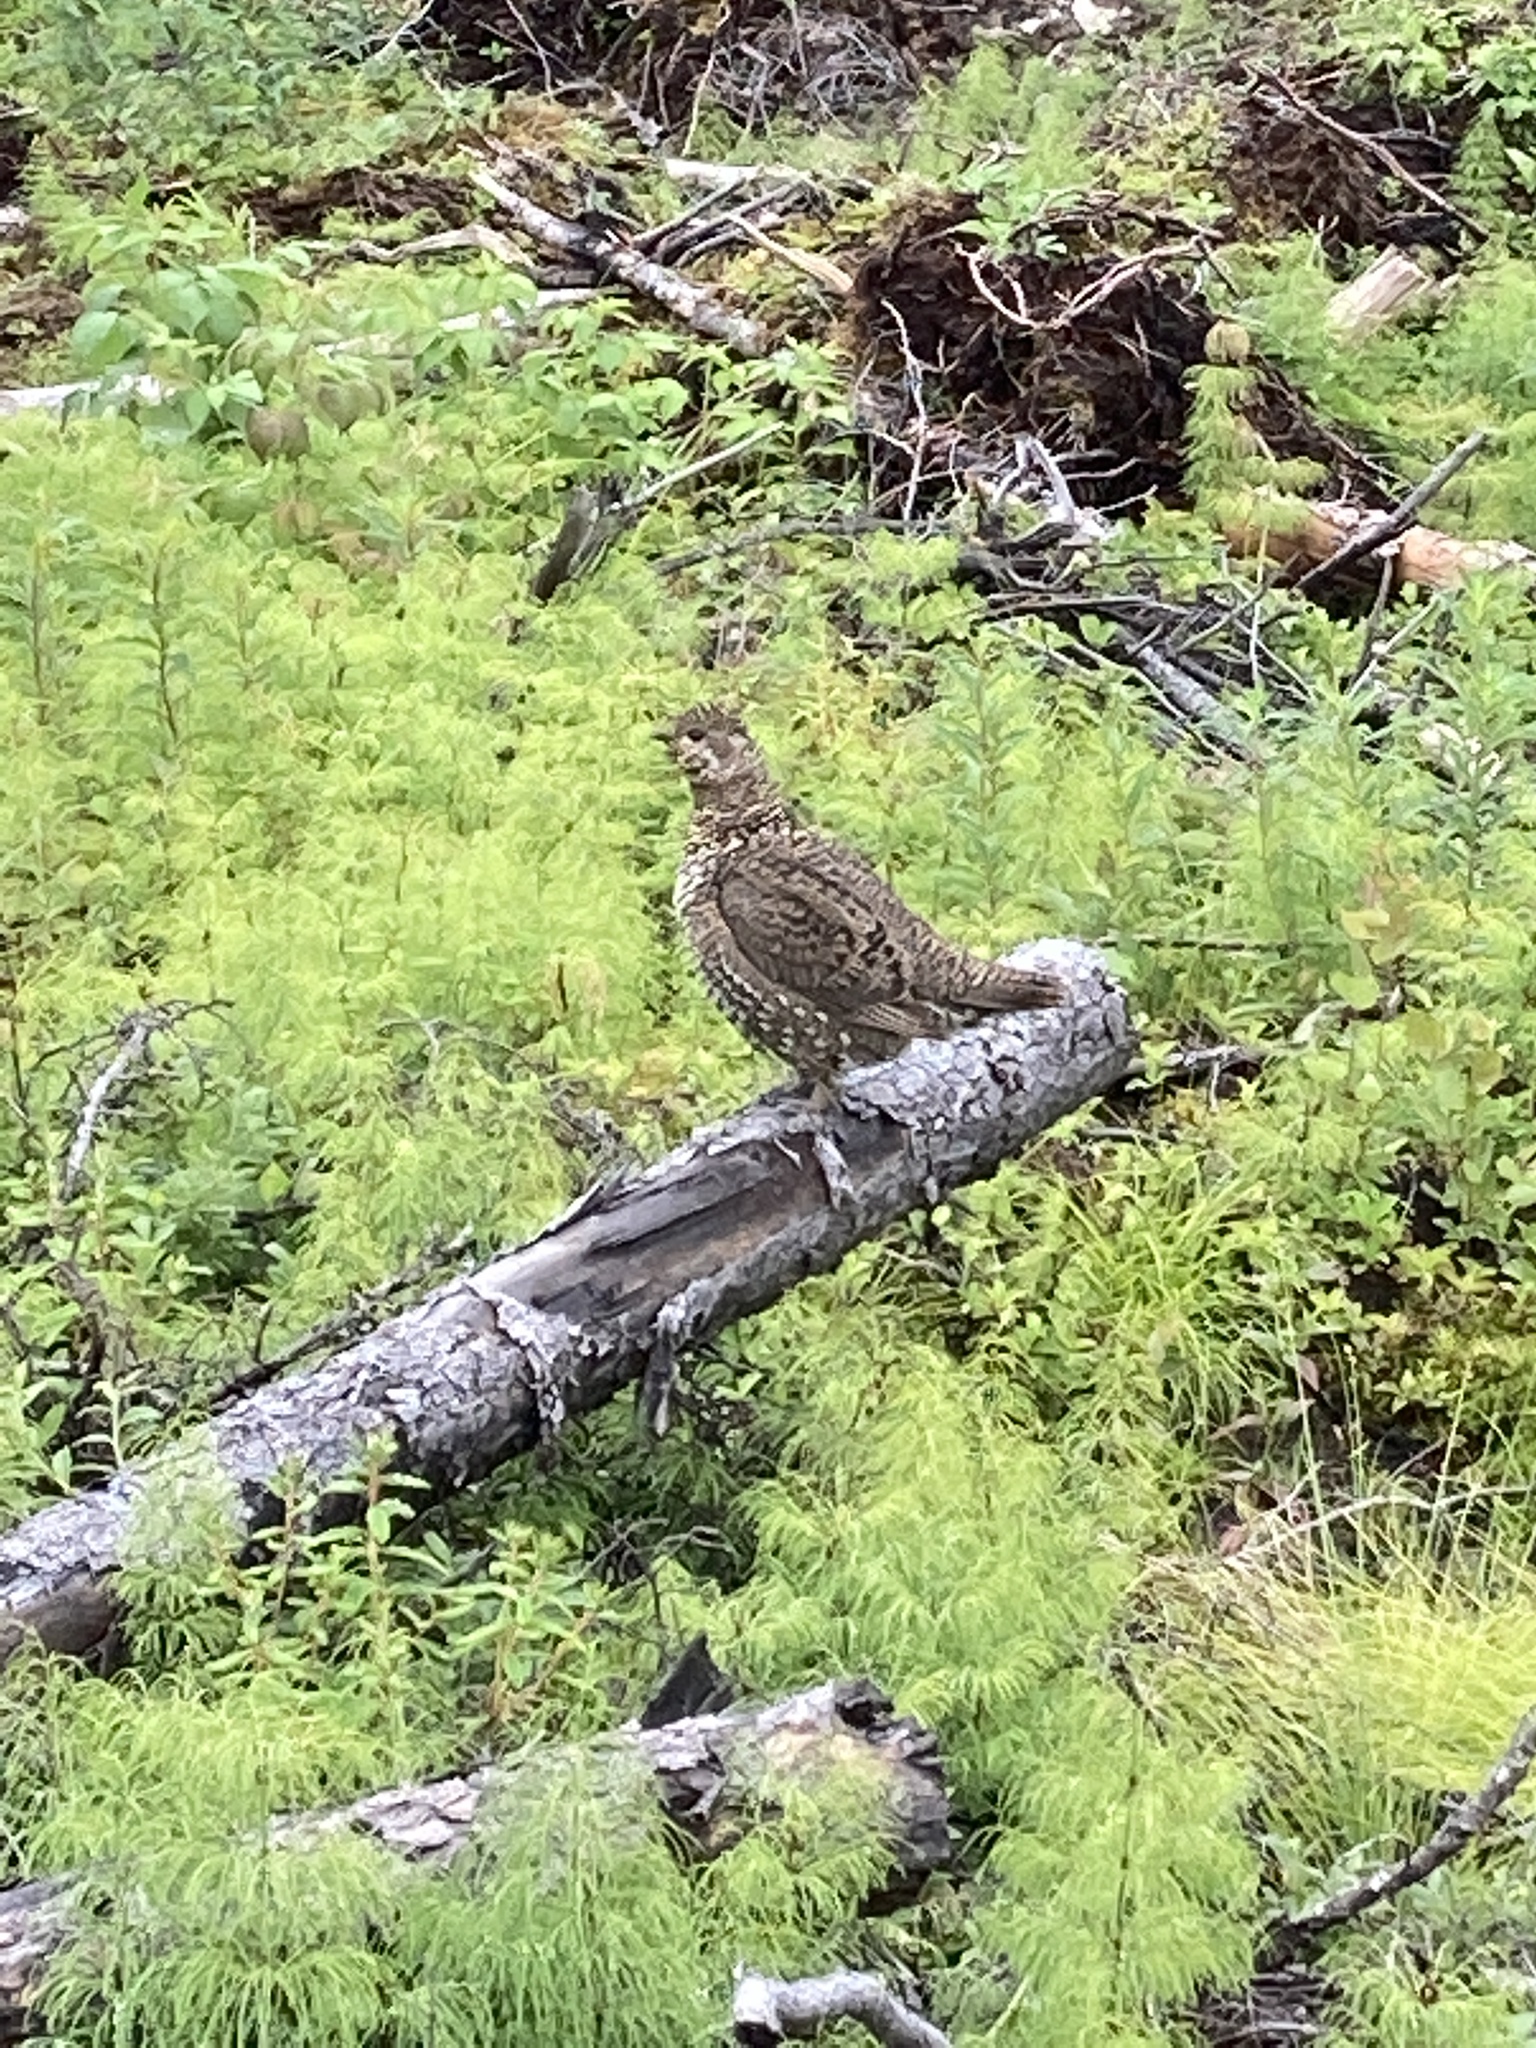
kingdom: Animalia
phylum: Chordata
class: Aves
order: Galliformes
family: Phasianidae
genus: Canachites
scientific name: Canachites canadensis
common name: Spruce grouse
